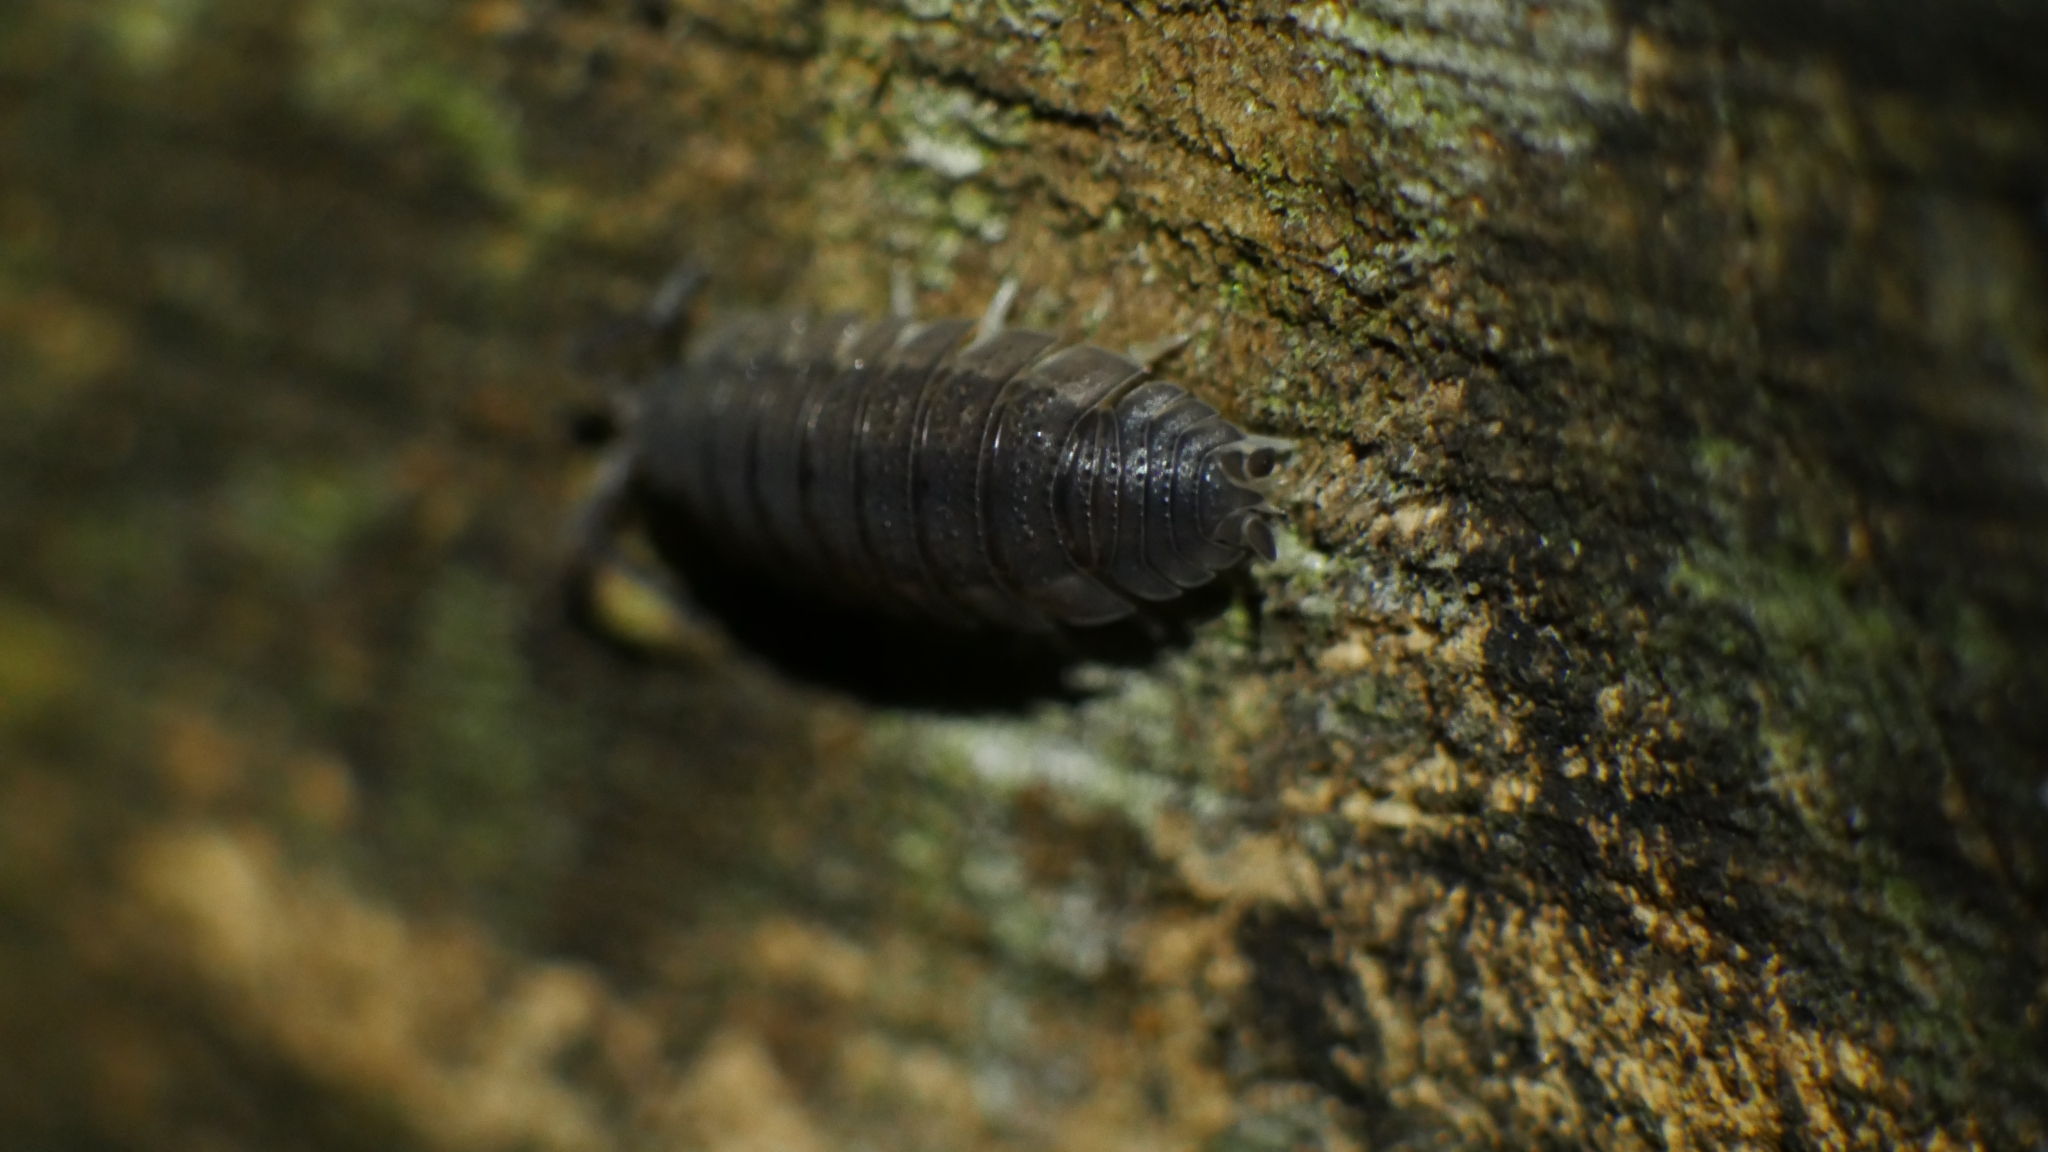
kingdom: Animalia
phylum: Arthropoda
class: Malacostraca
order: Isopoda
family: Porcellionidae
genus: Porcellio
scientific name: Porcellio scaber
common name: Common rough woodlouse
